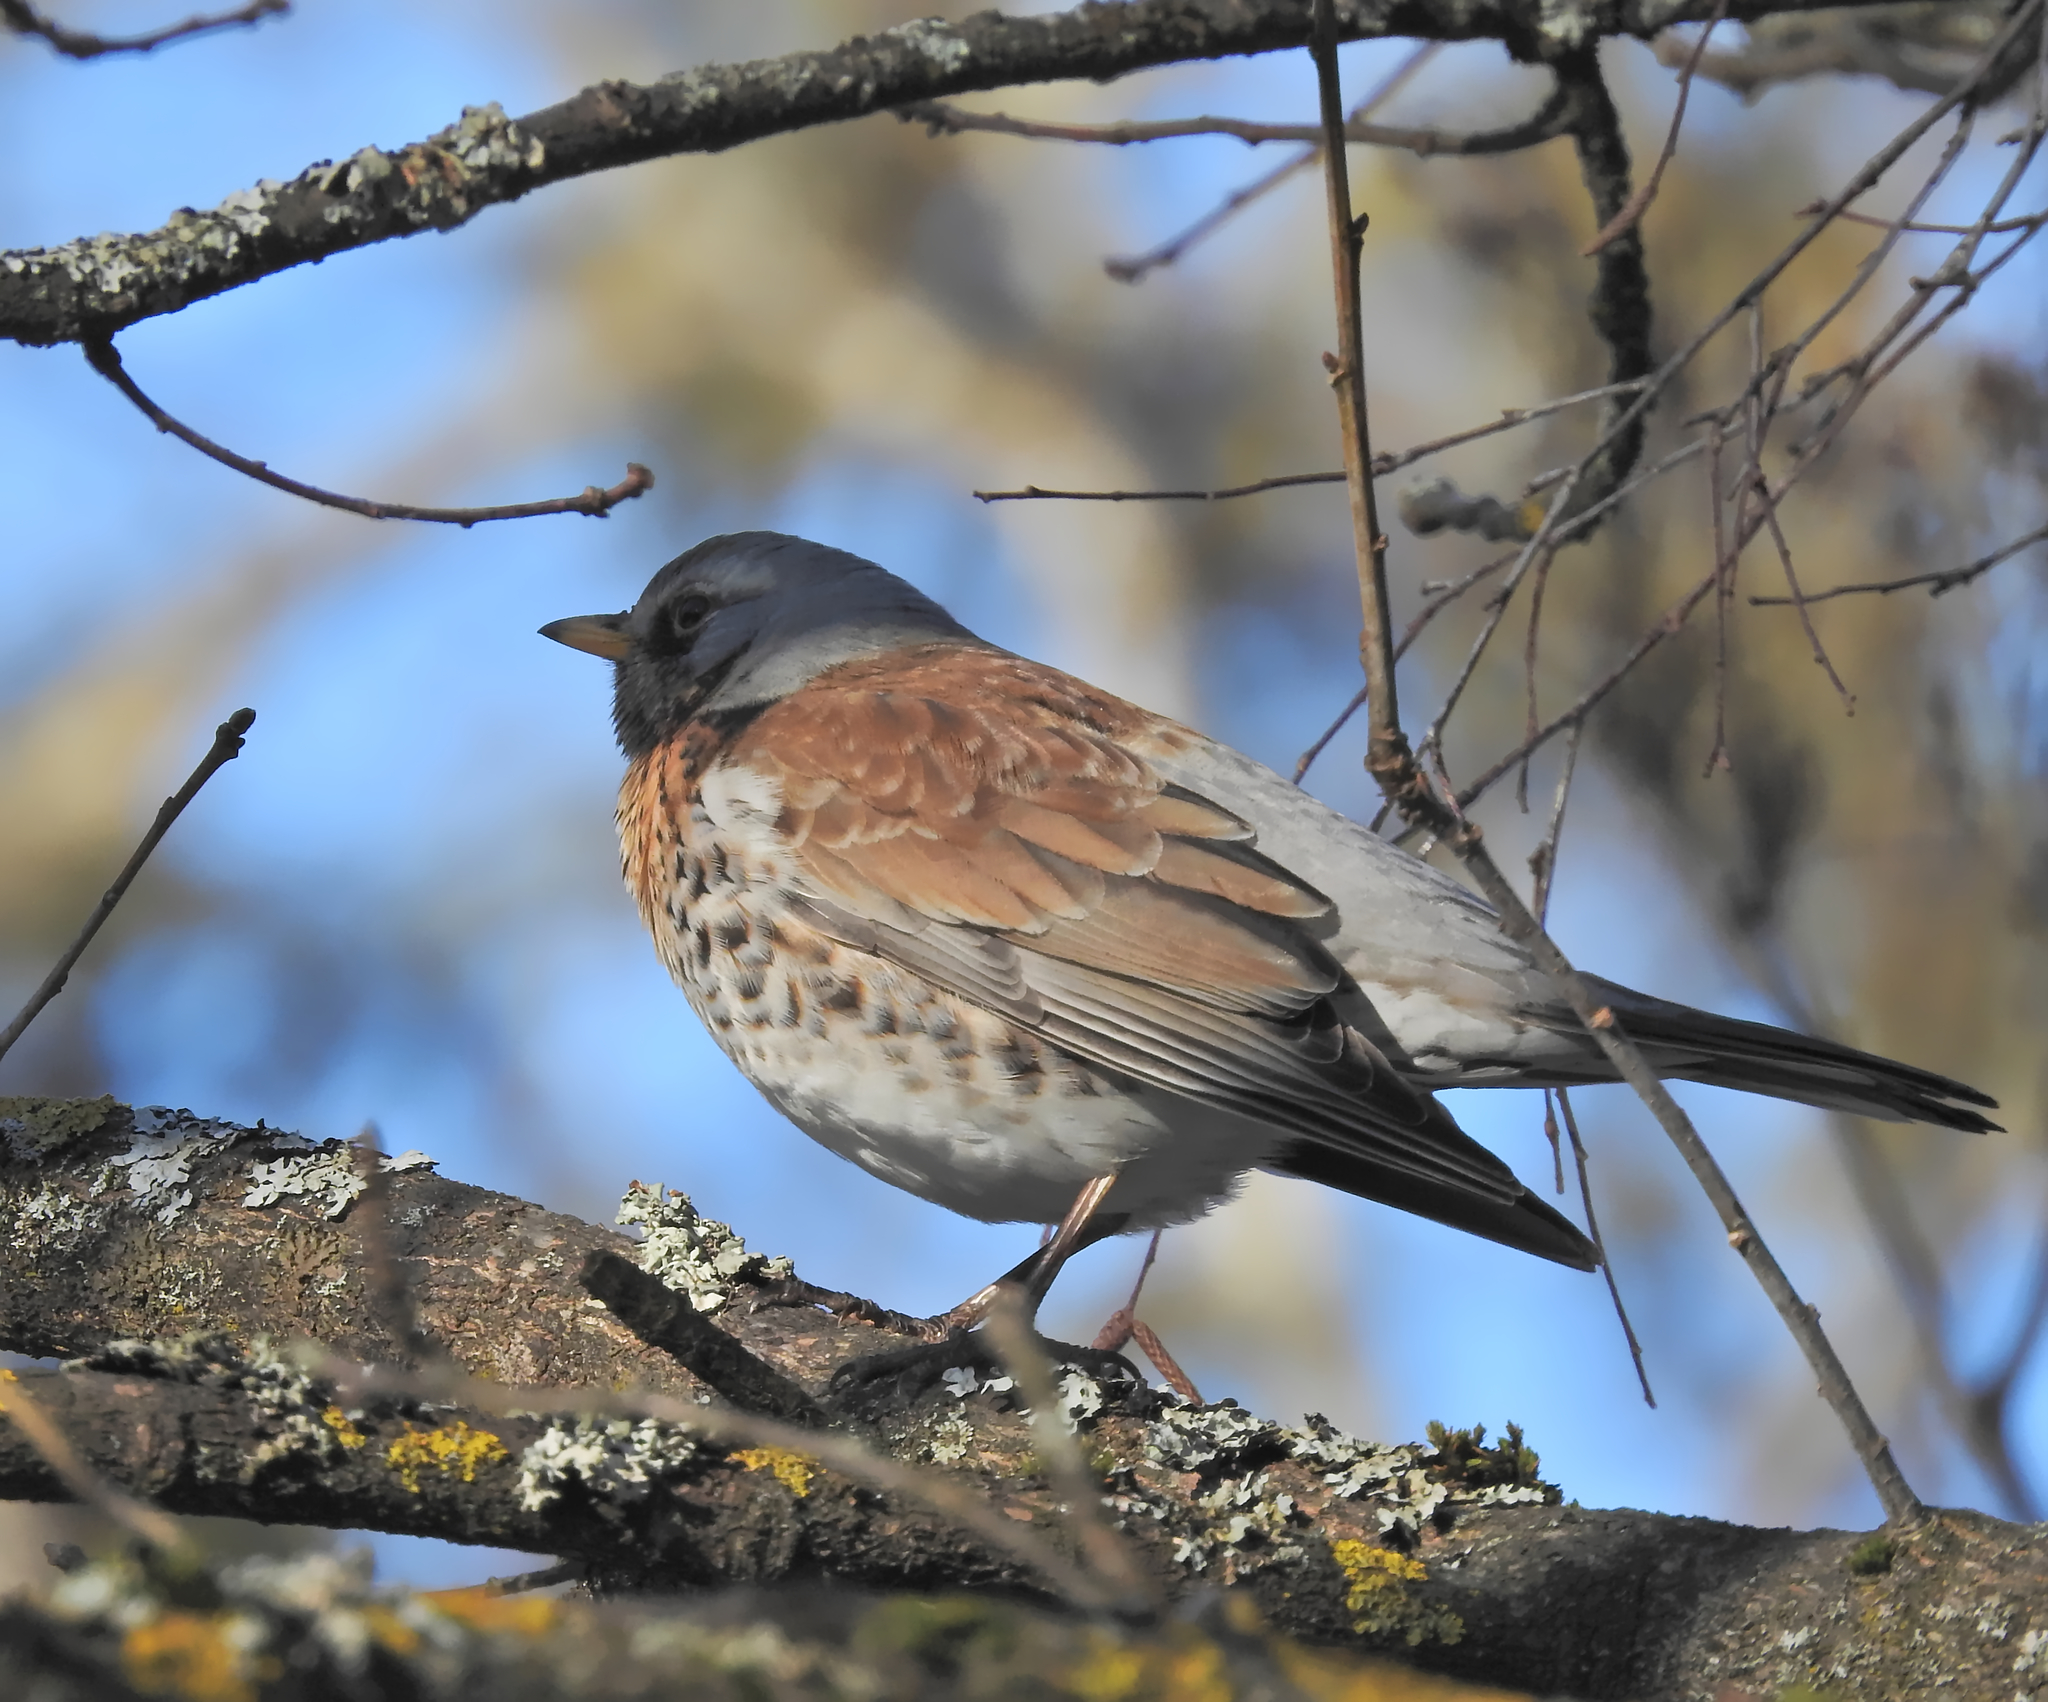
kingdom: Animalia
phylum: Chordata
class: Aves
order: Passeriformes
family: Turdidae
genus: Turdus
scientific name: Turdus pilaris
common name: Fieldfare
